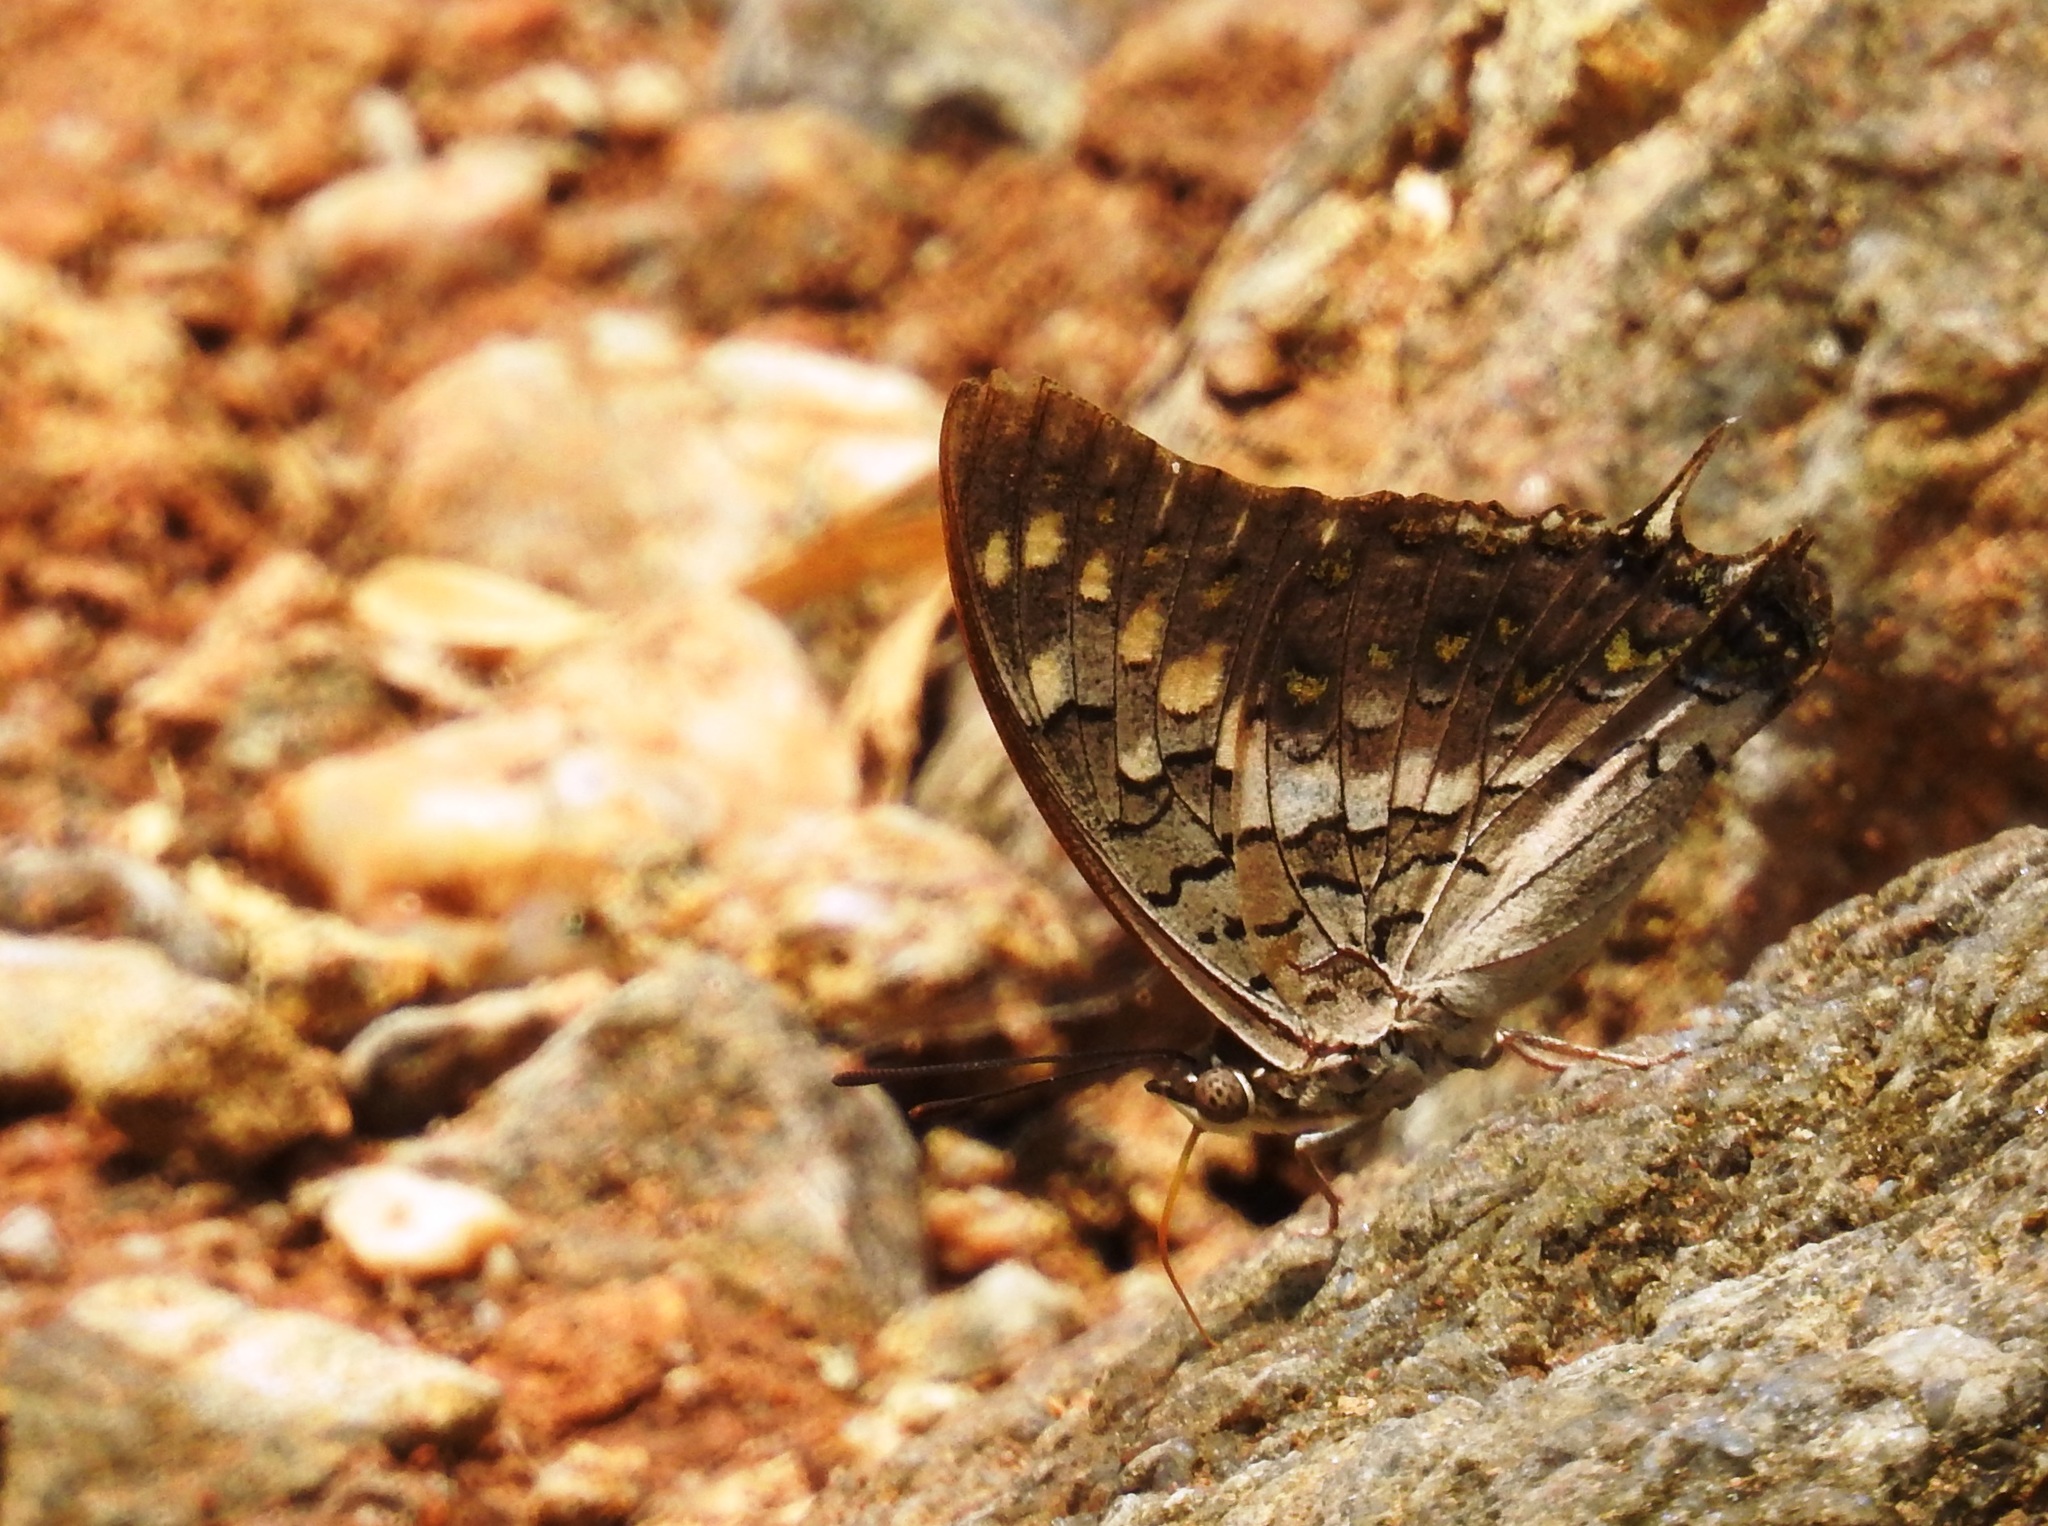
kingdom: Animalia
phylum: Arthropoda
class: Insecta
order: Lepidoptera
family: Nymphalidae
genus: Charaxes
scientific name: Charaxes solon
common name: Black rajah
